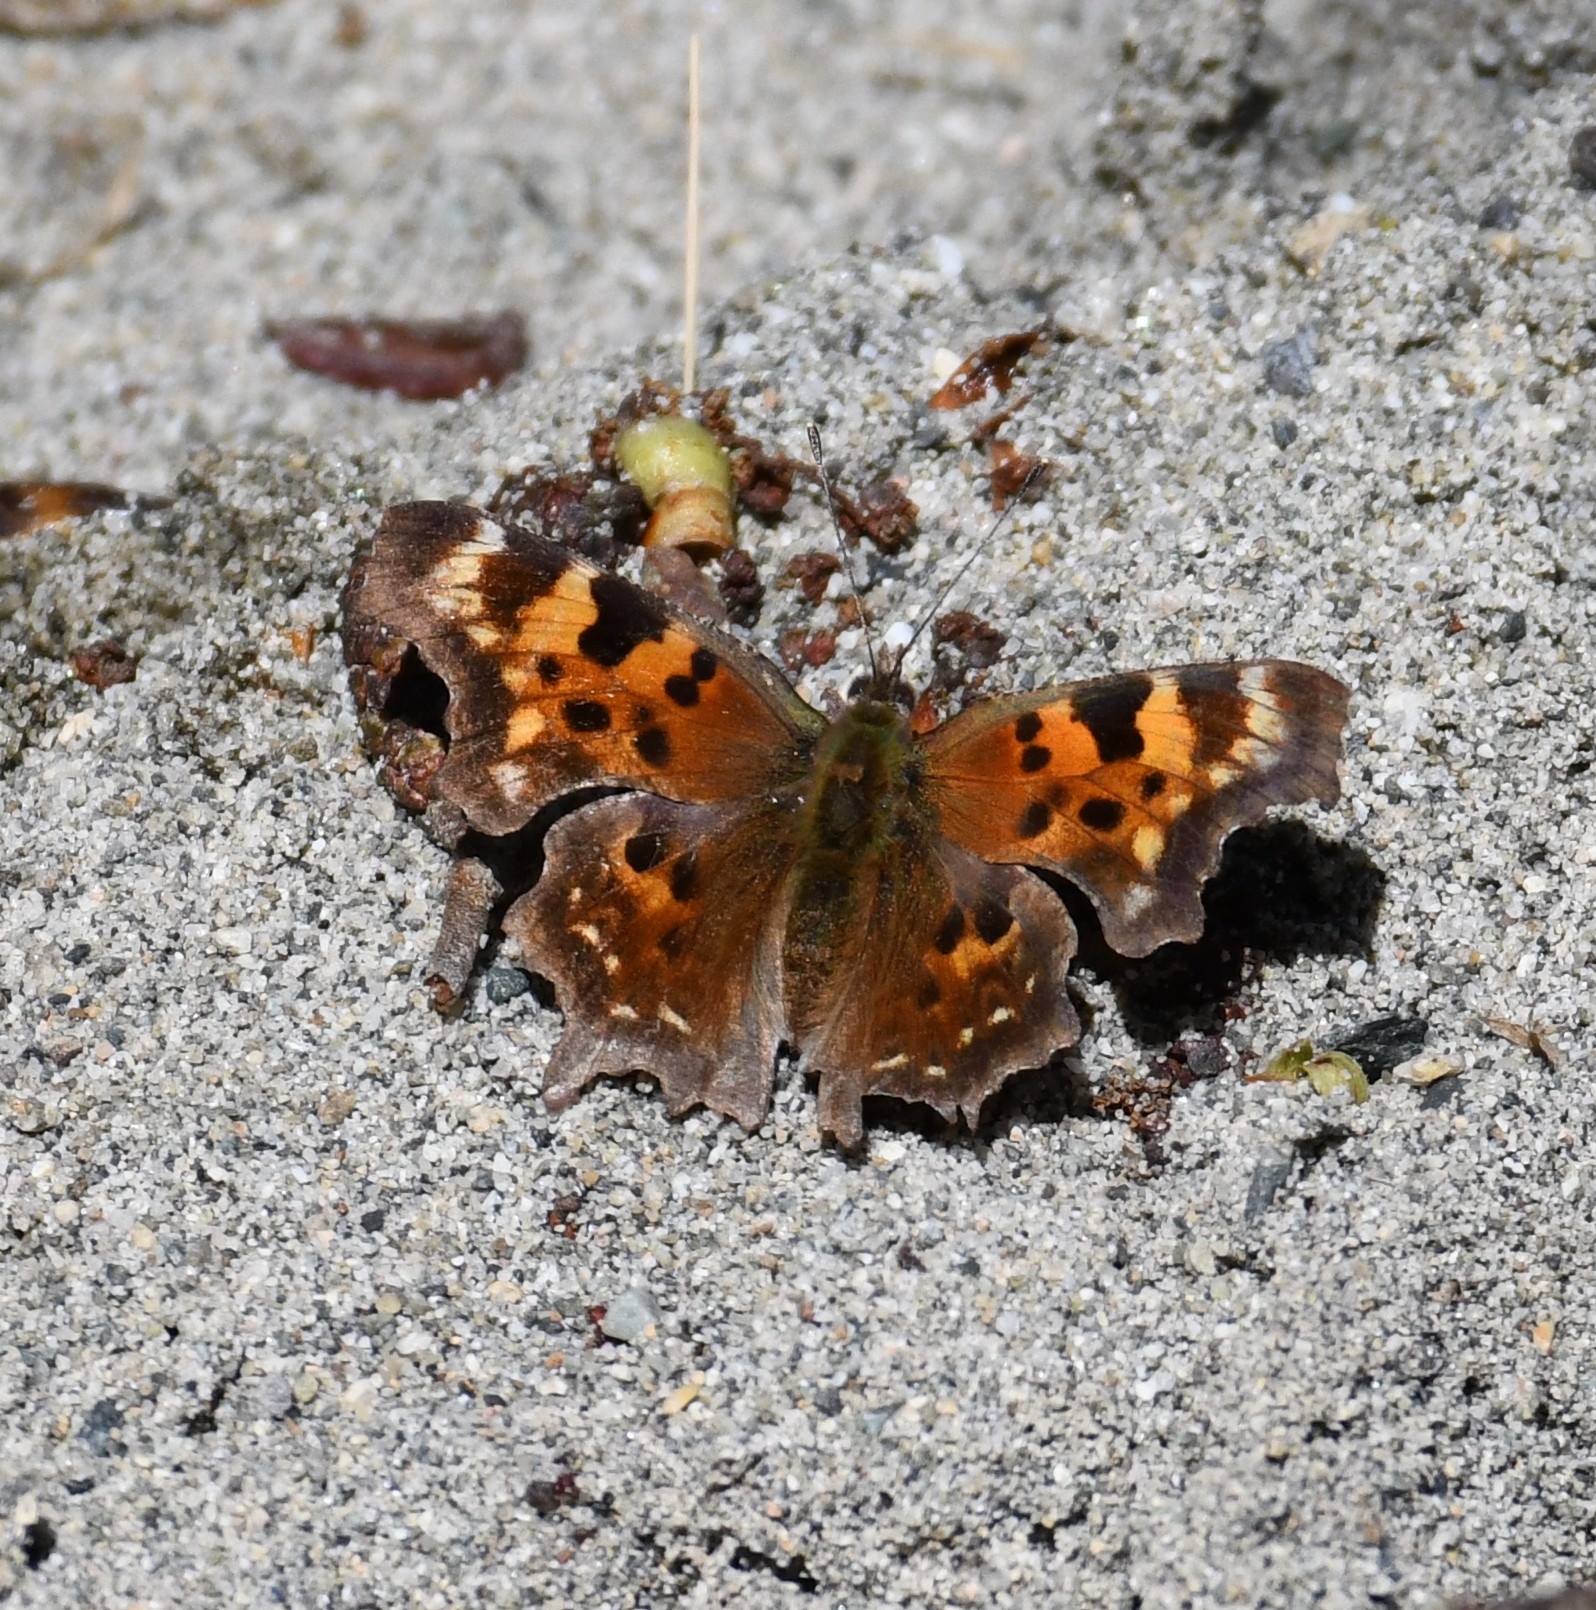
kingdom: Animalia
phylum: Arthropoda
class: Insecta
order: Lepidoptera
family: Nymphalidae
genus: Polygonia
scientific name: Polygonia faunus
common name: Green comma
